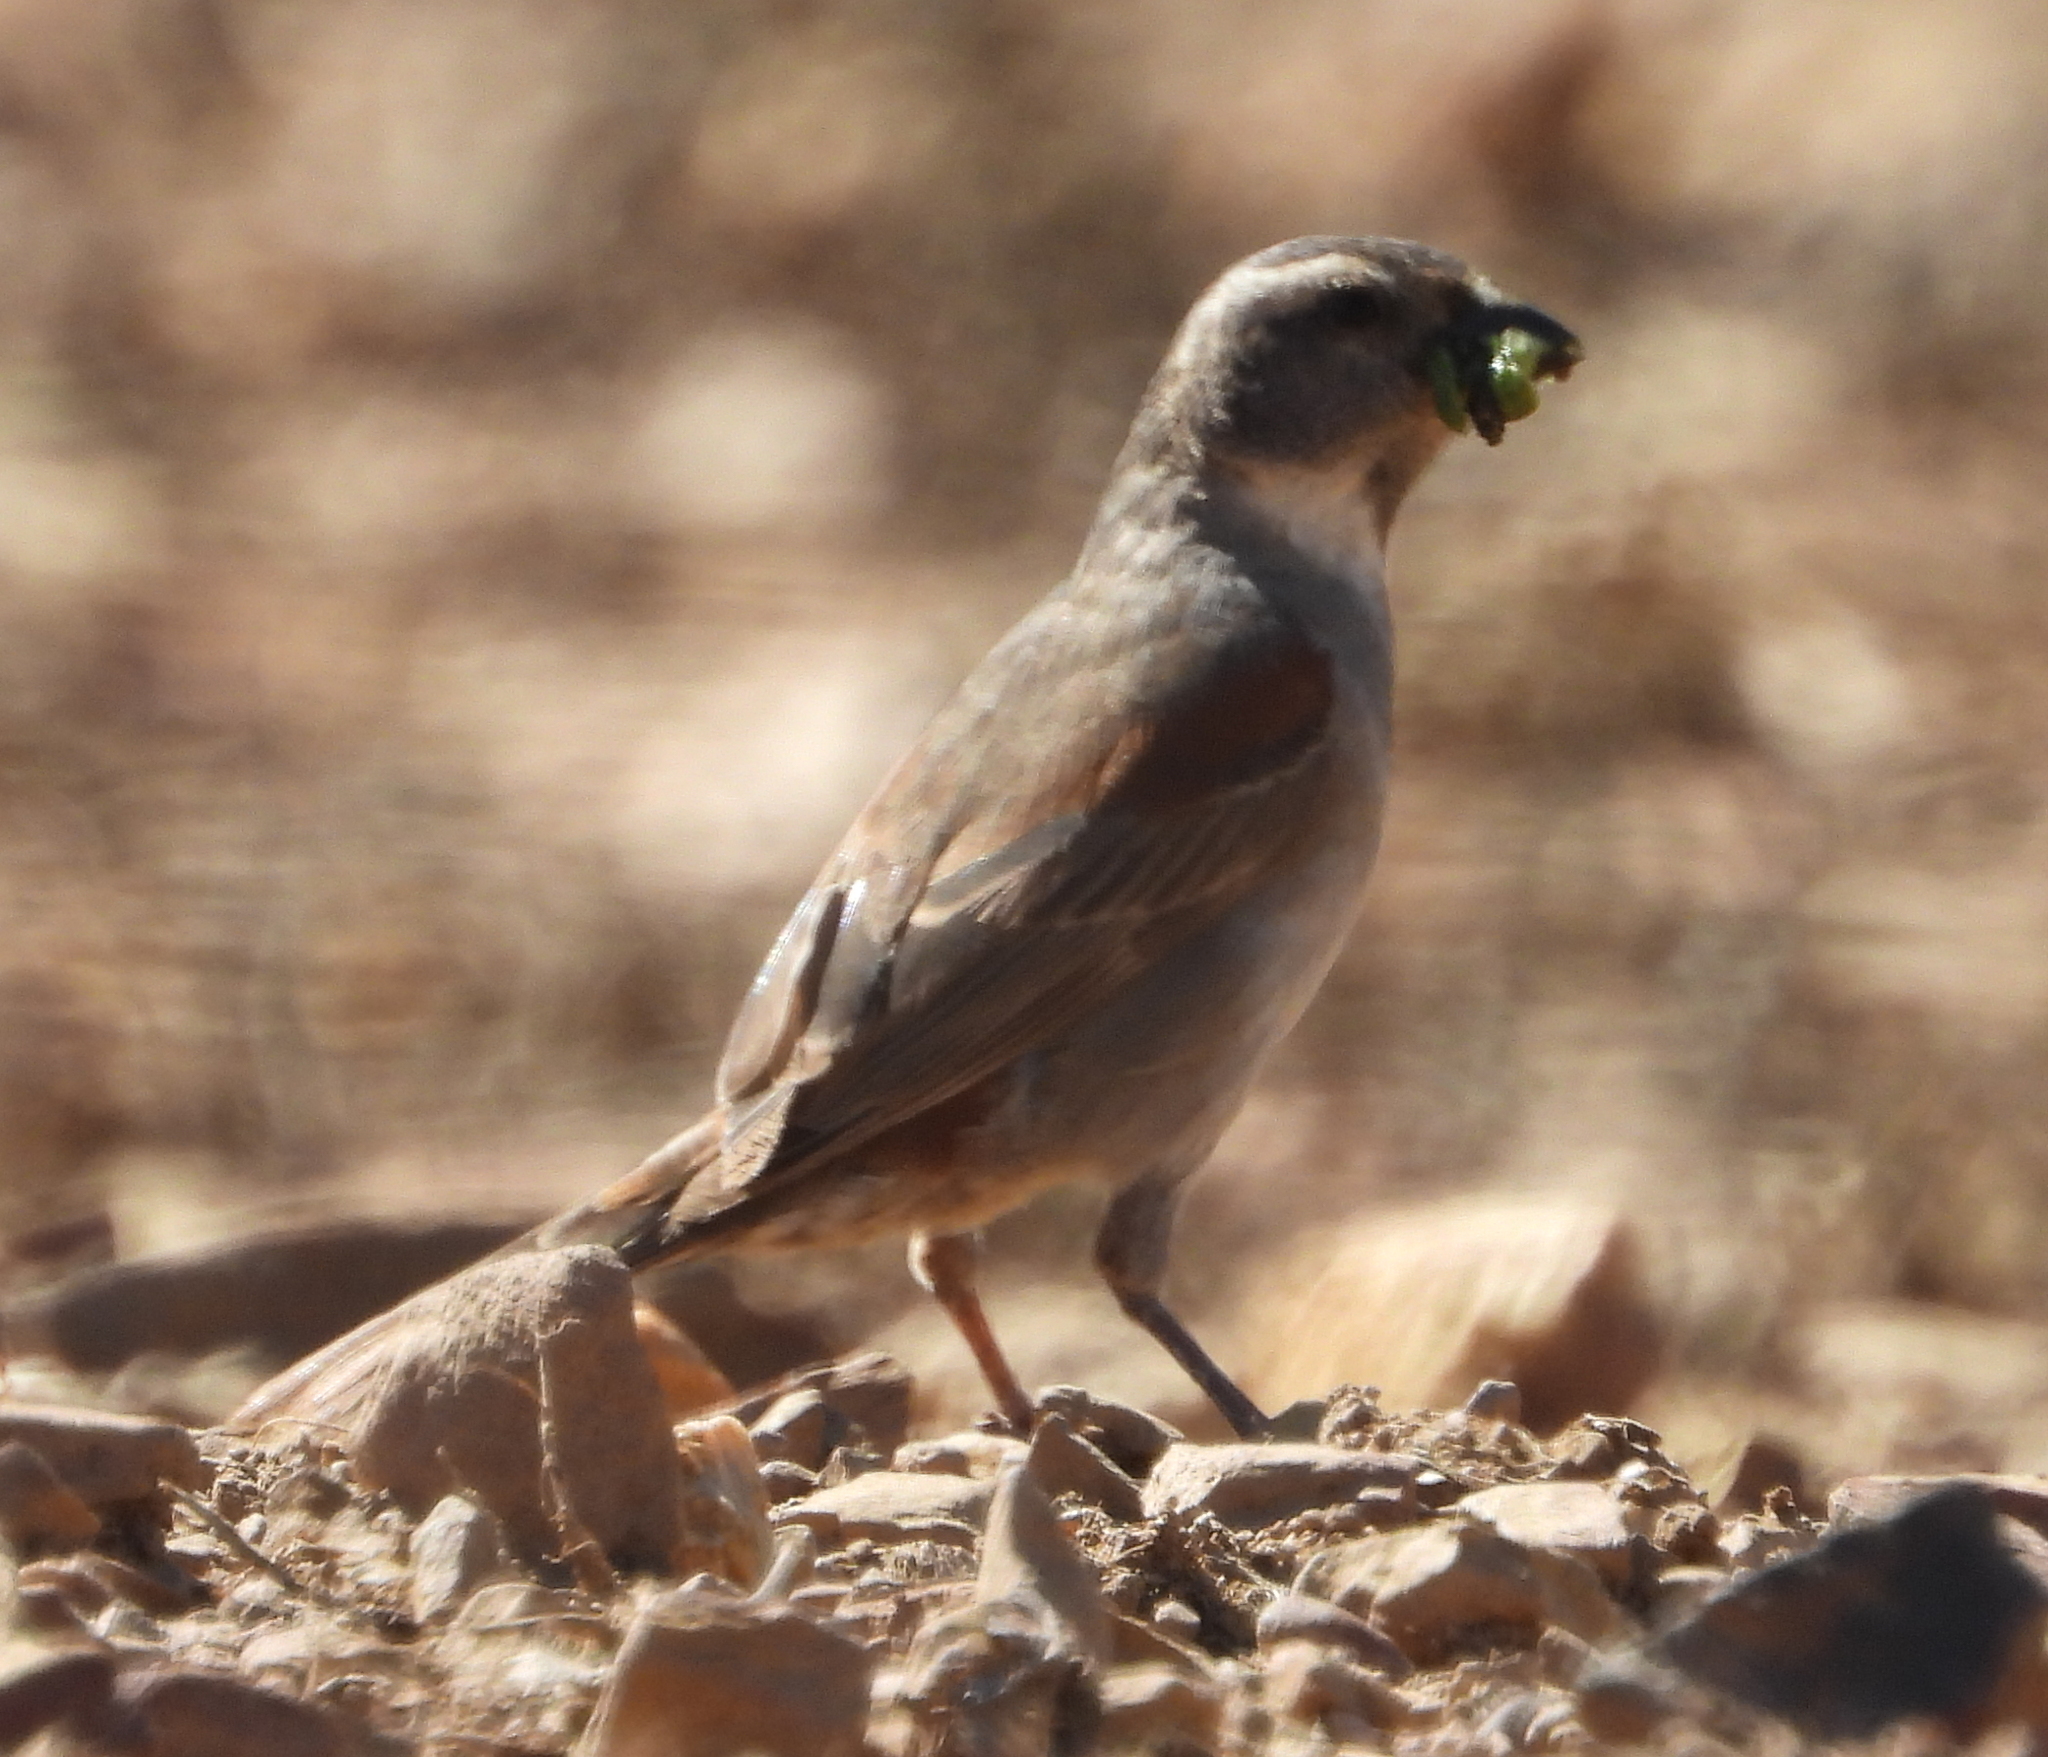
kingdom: Animalia
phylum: Chordata
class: Aves
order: Passeriformes
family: Passeridae
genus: Passer
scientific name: Passer melanurus
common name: Cape sparrow
